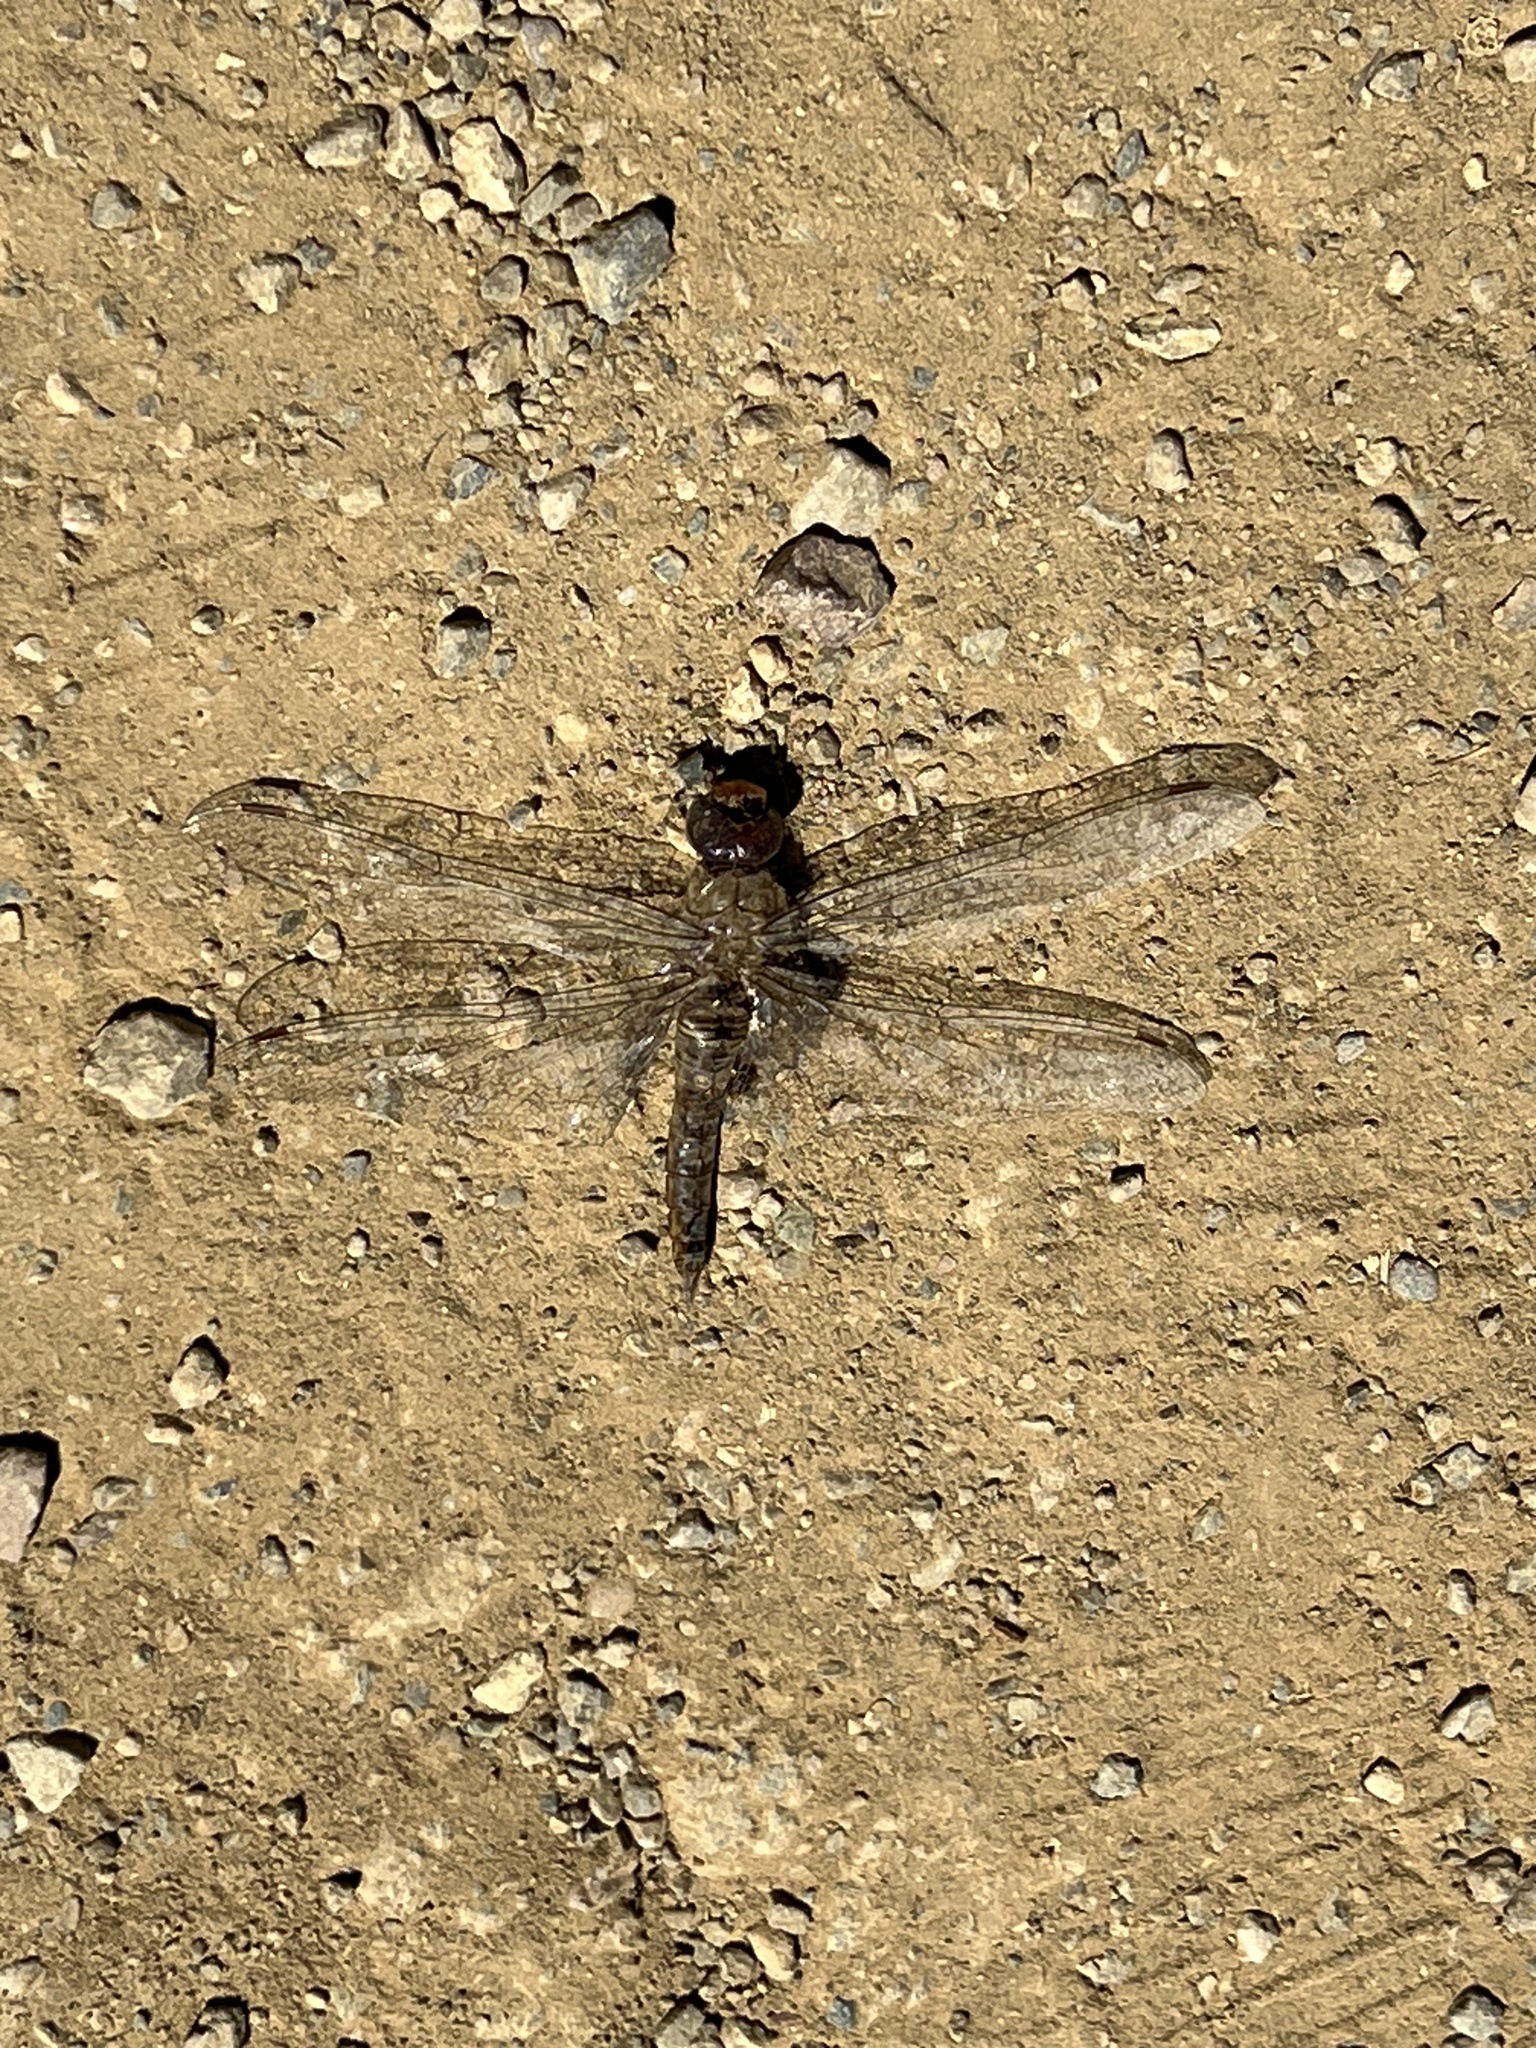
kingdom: Animalia
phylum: Arthropoda
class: Insecta
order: Odonata
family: Libellulidae
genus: Pantala
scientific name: Pantala hymenaea
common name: Spot-winged glider
